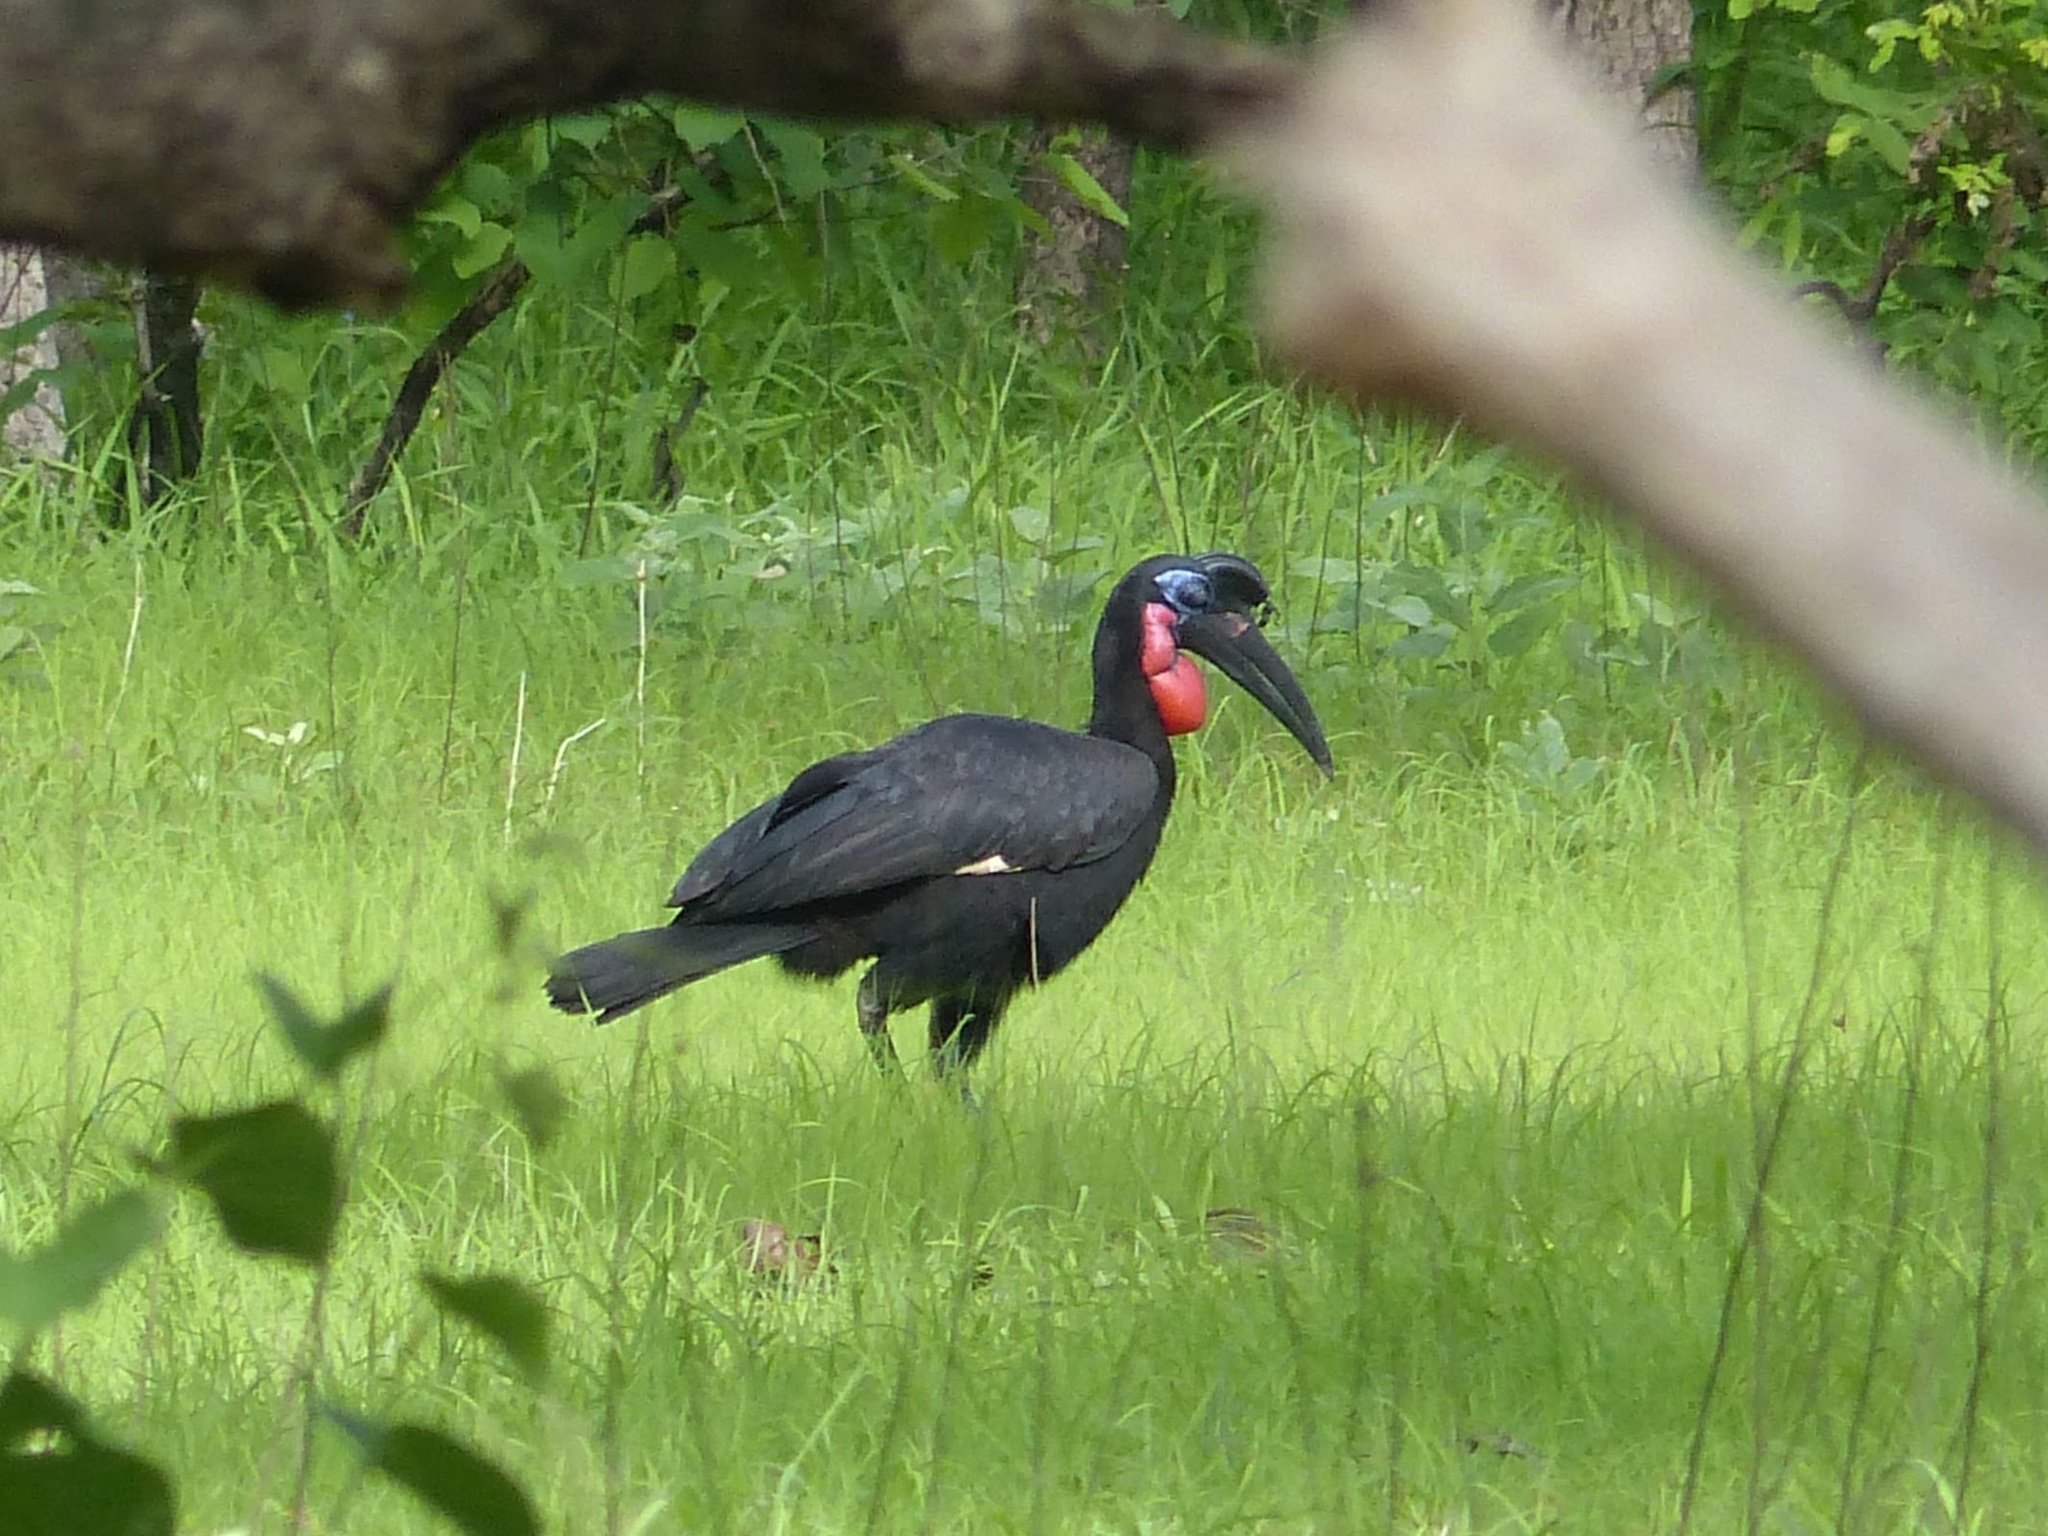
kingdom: Animalia
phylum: Chordata
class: Aves
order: Bucerotiformes
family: Bucorvidae
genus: Bucorvus
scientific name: Bucorvus abyssinicus
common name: Abyssinian ground hornbill
